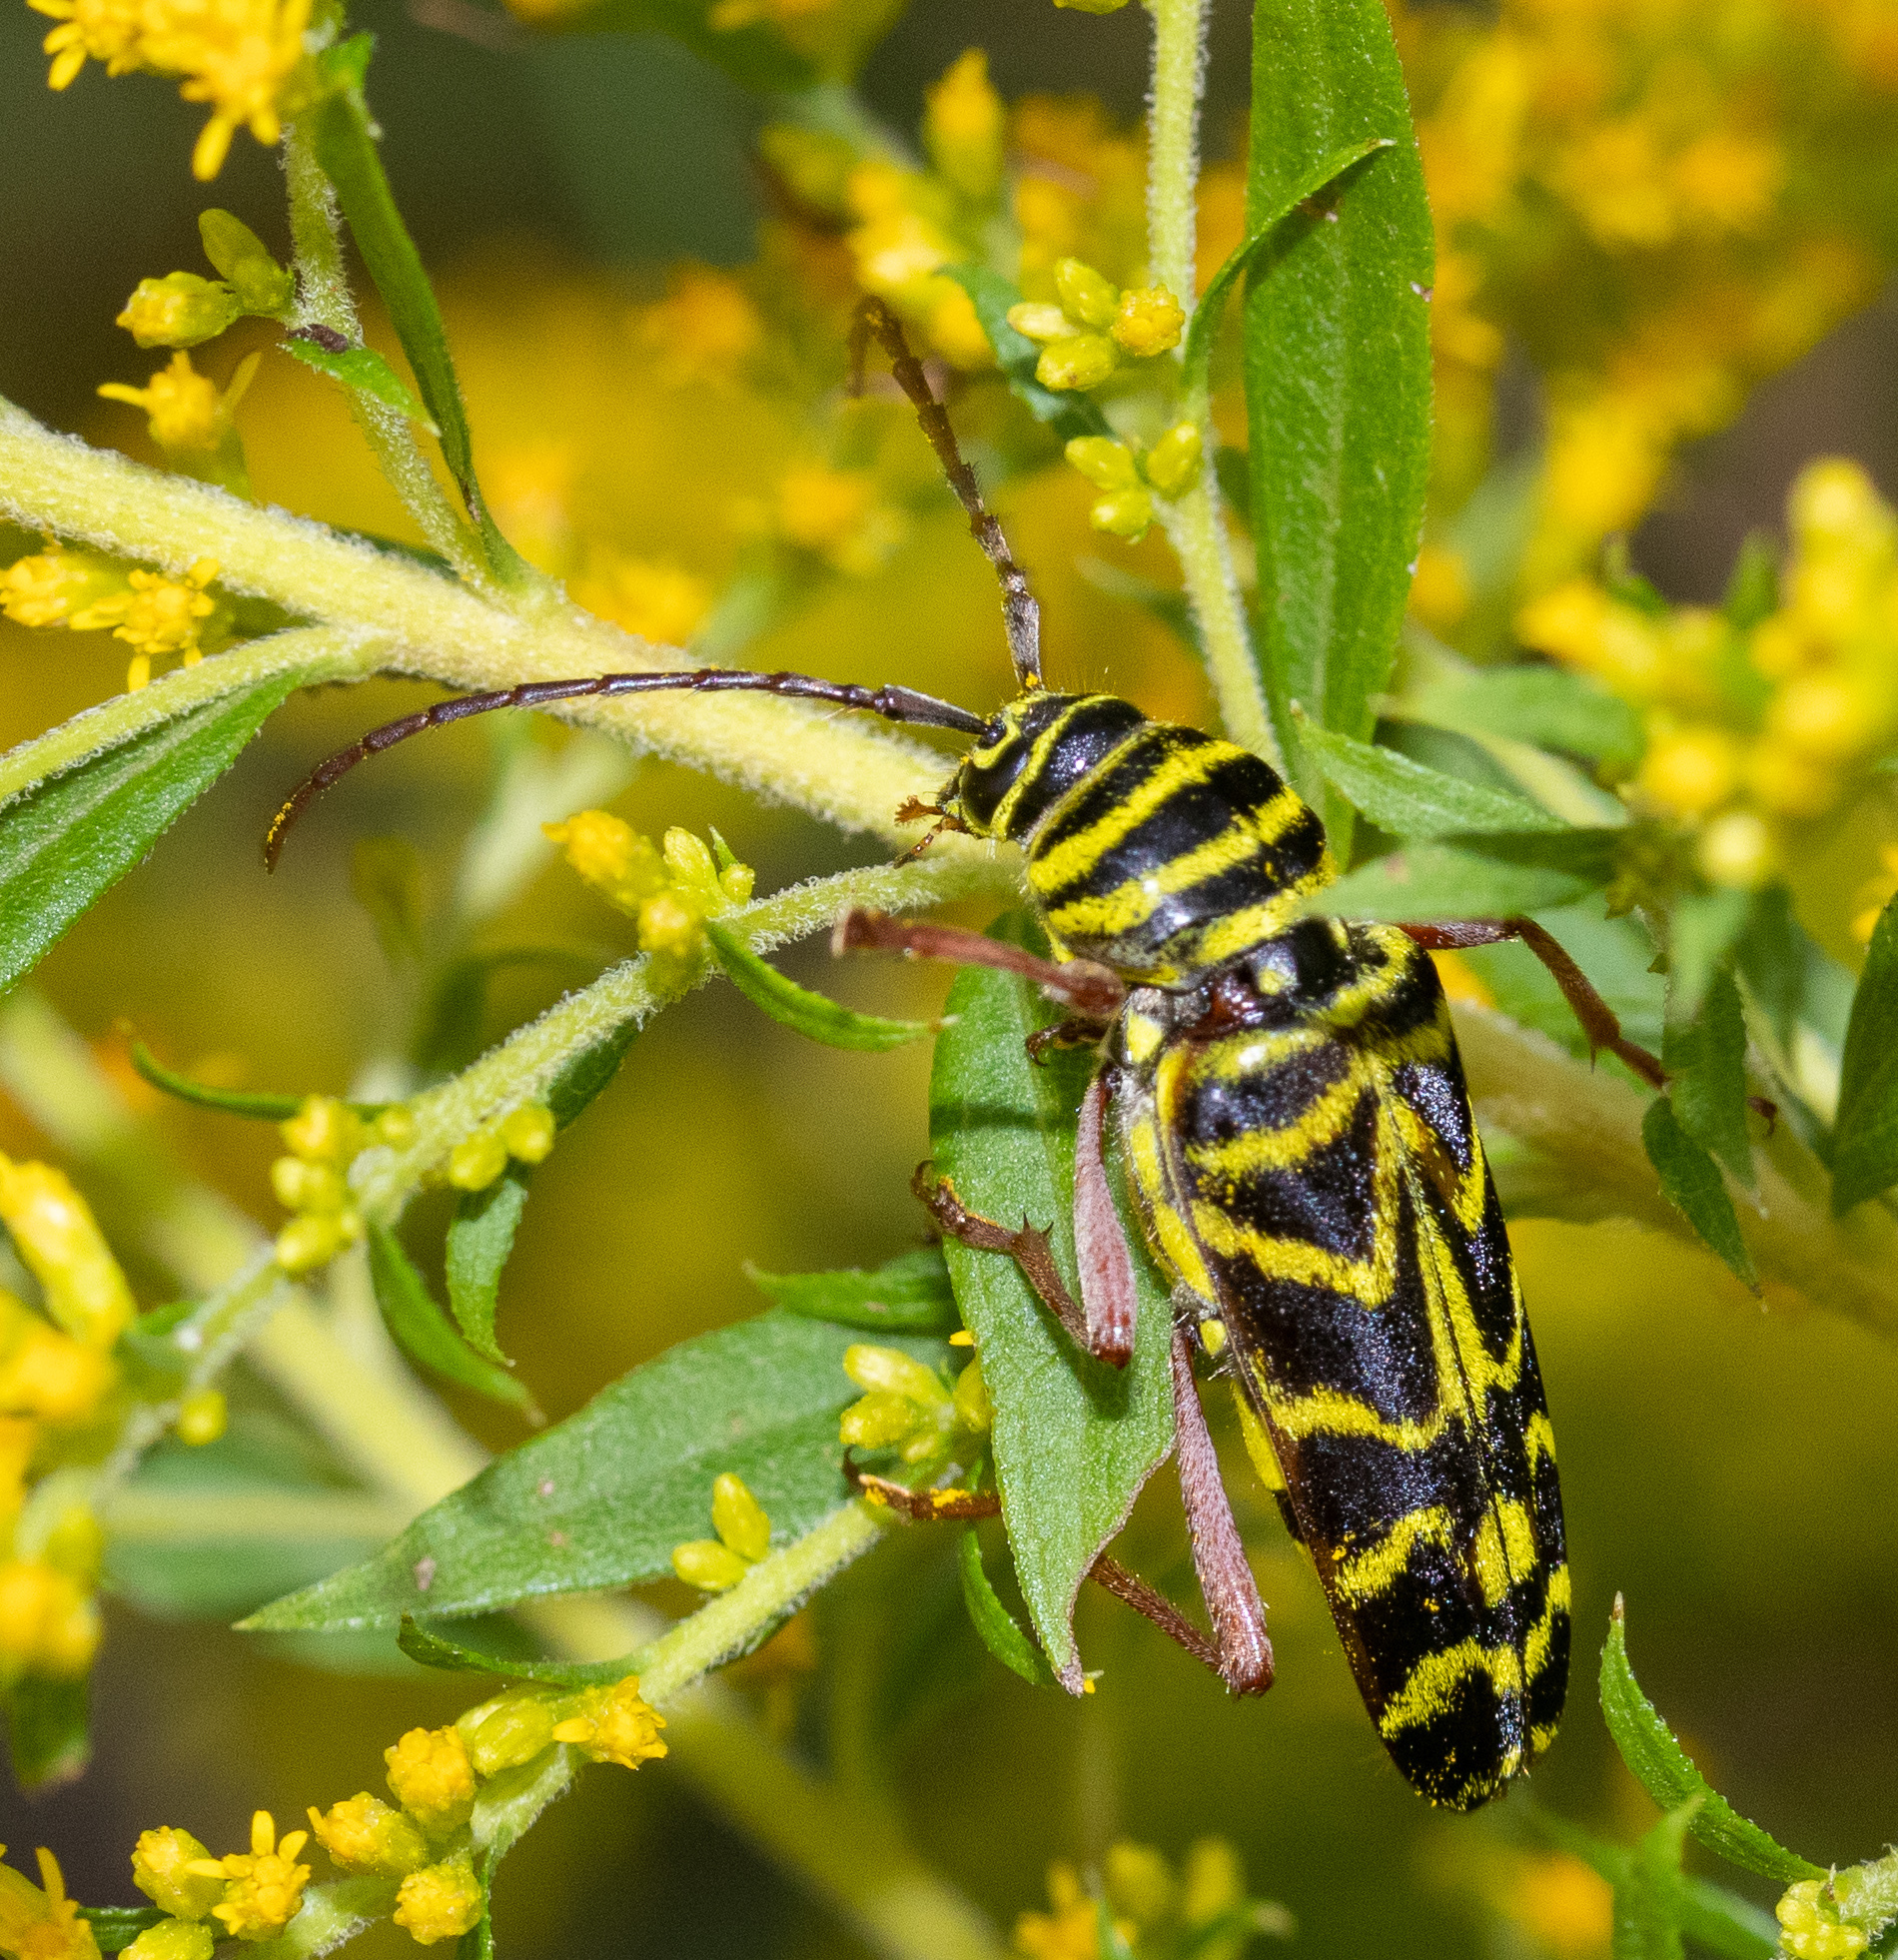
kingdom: Animalia
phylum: Arthropoda
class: Insecta
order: Coleoptera
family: Cerambycidae
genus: Megacyllene
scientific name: Megacyllene robiniae
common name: Locust borer
